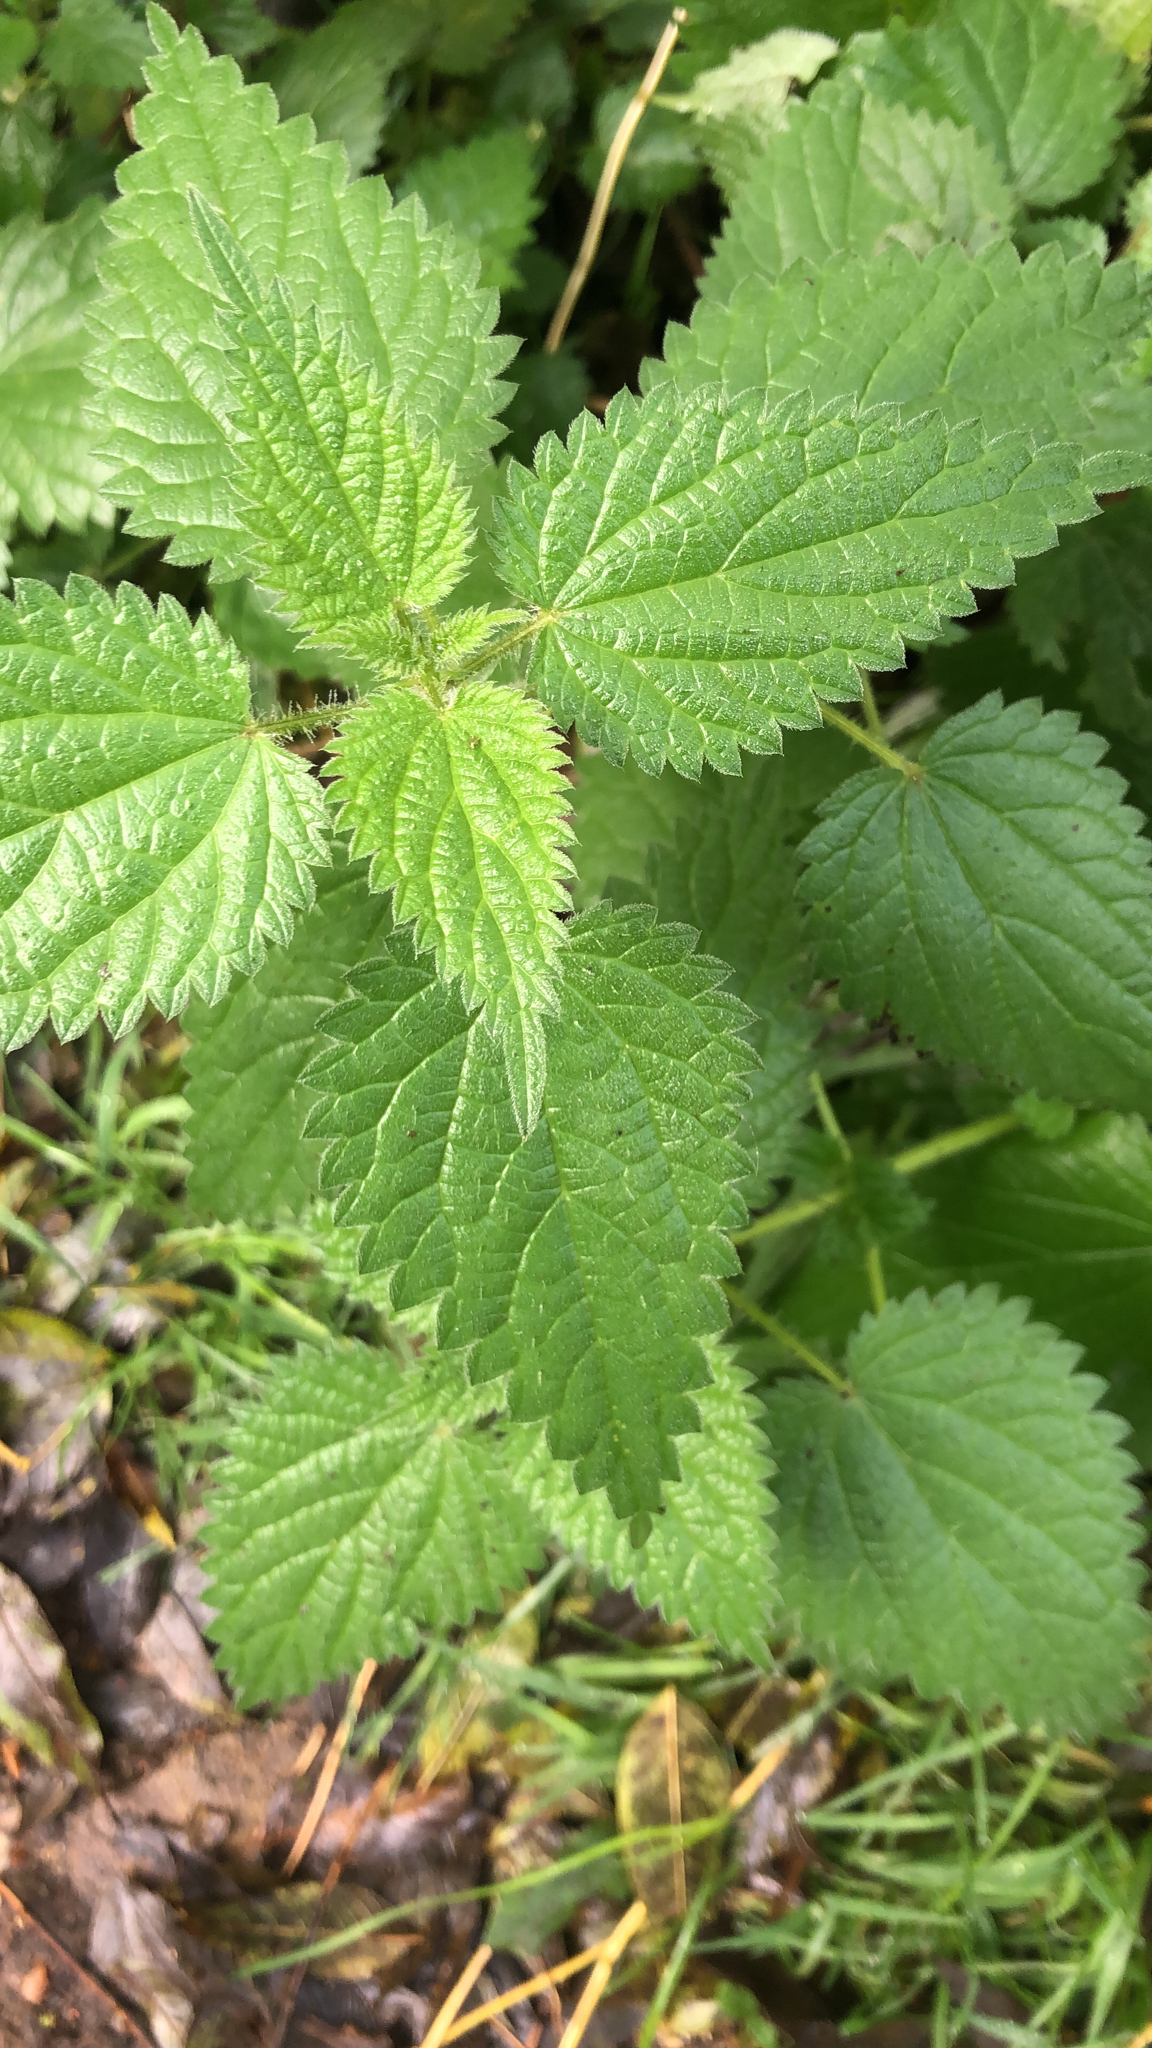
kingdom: Plantae
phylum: Tracheophyta
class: Magnoliopsida
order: Rosales
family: Urticaceae
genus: Urtica
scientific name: Urtica dioica
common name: Common nettle
